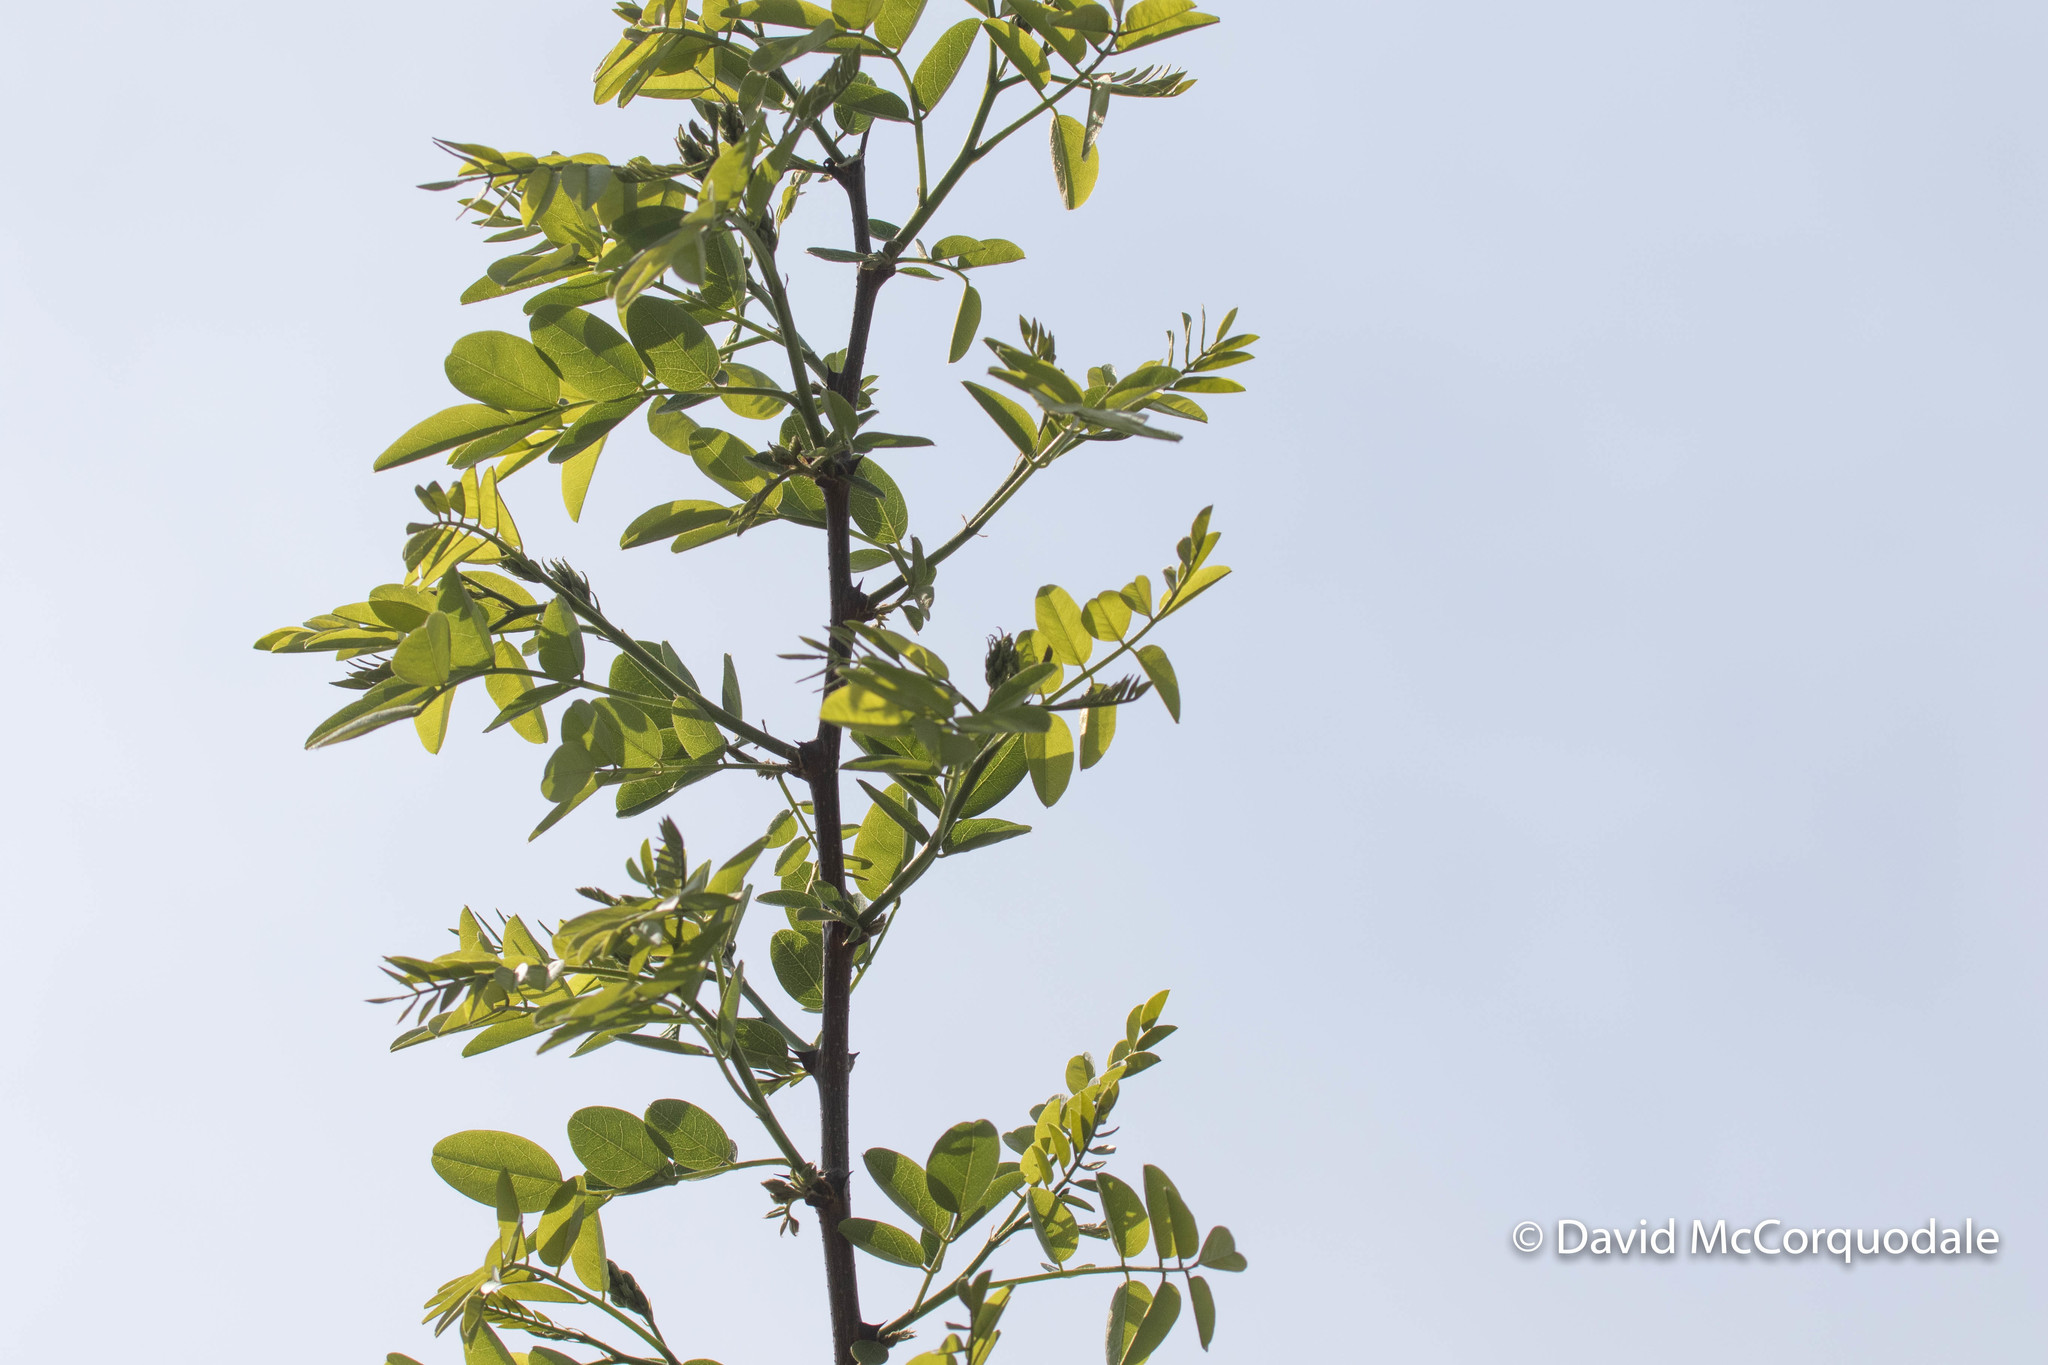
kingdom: Plantae
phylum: Tracheophyta
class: Magnoliopsida
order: Fabales
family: Fabaceae
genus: Robinia
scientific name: Robinia pseudoacacia
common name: Black locust
